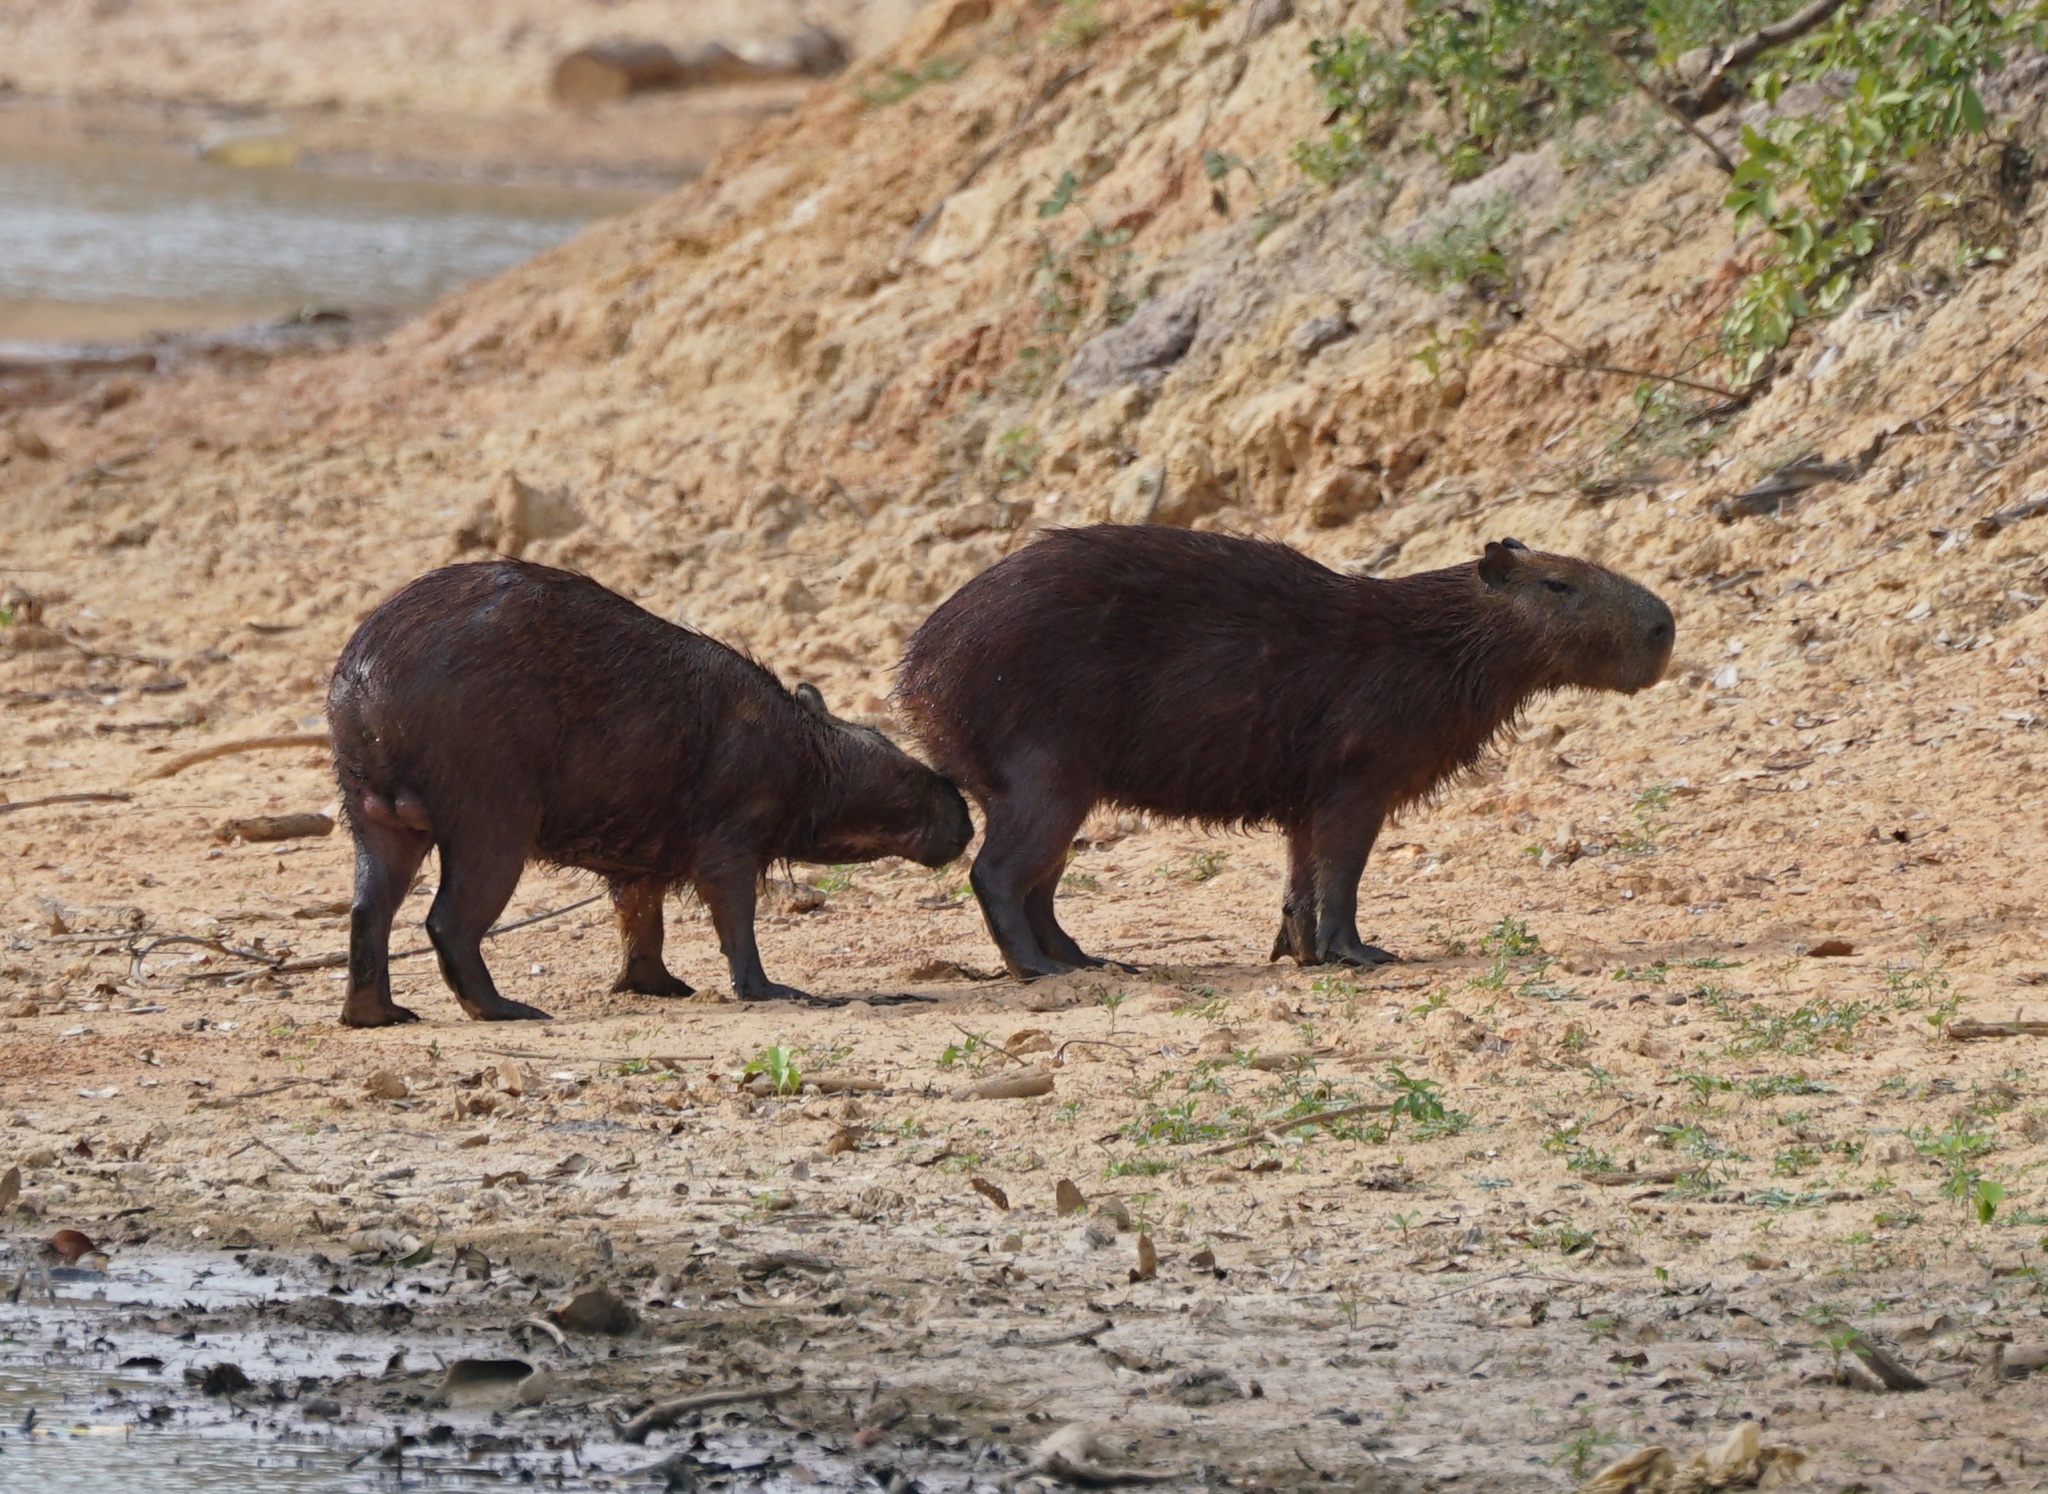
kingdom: Animalia
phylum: Chordata
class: Mammalia
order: Rodentia
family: Caviidae
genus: Hydrochoerus
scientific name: Hydrochoerus hydrochaeris
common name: Capybara
